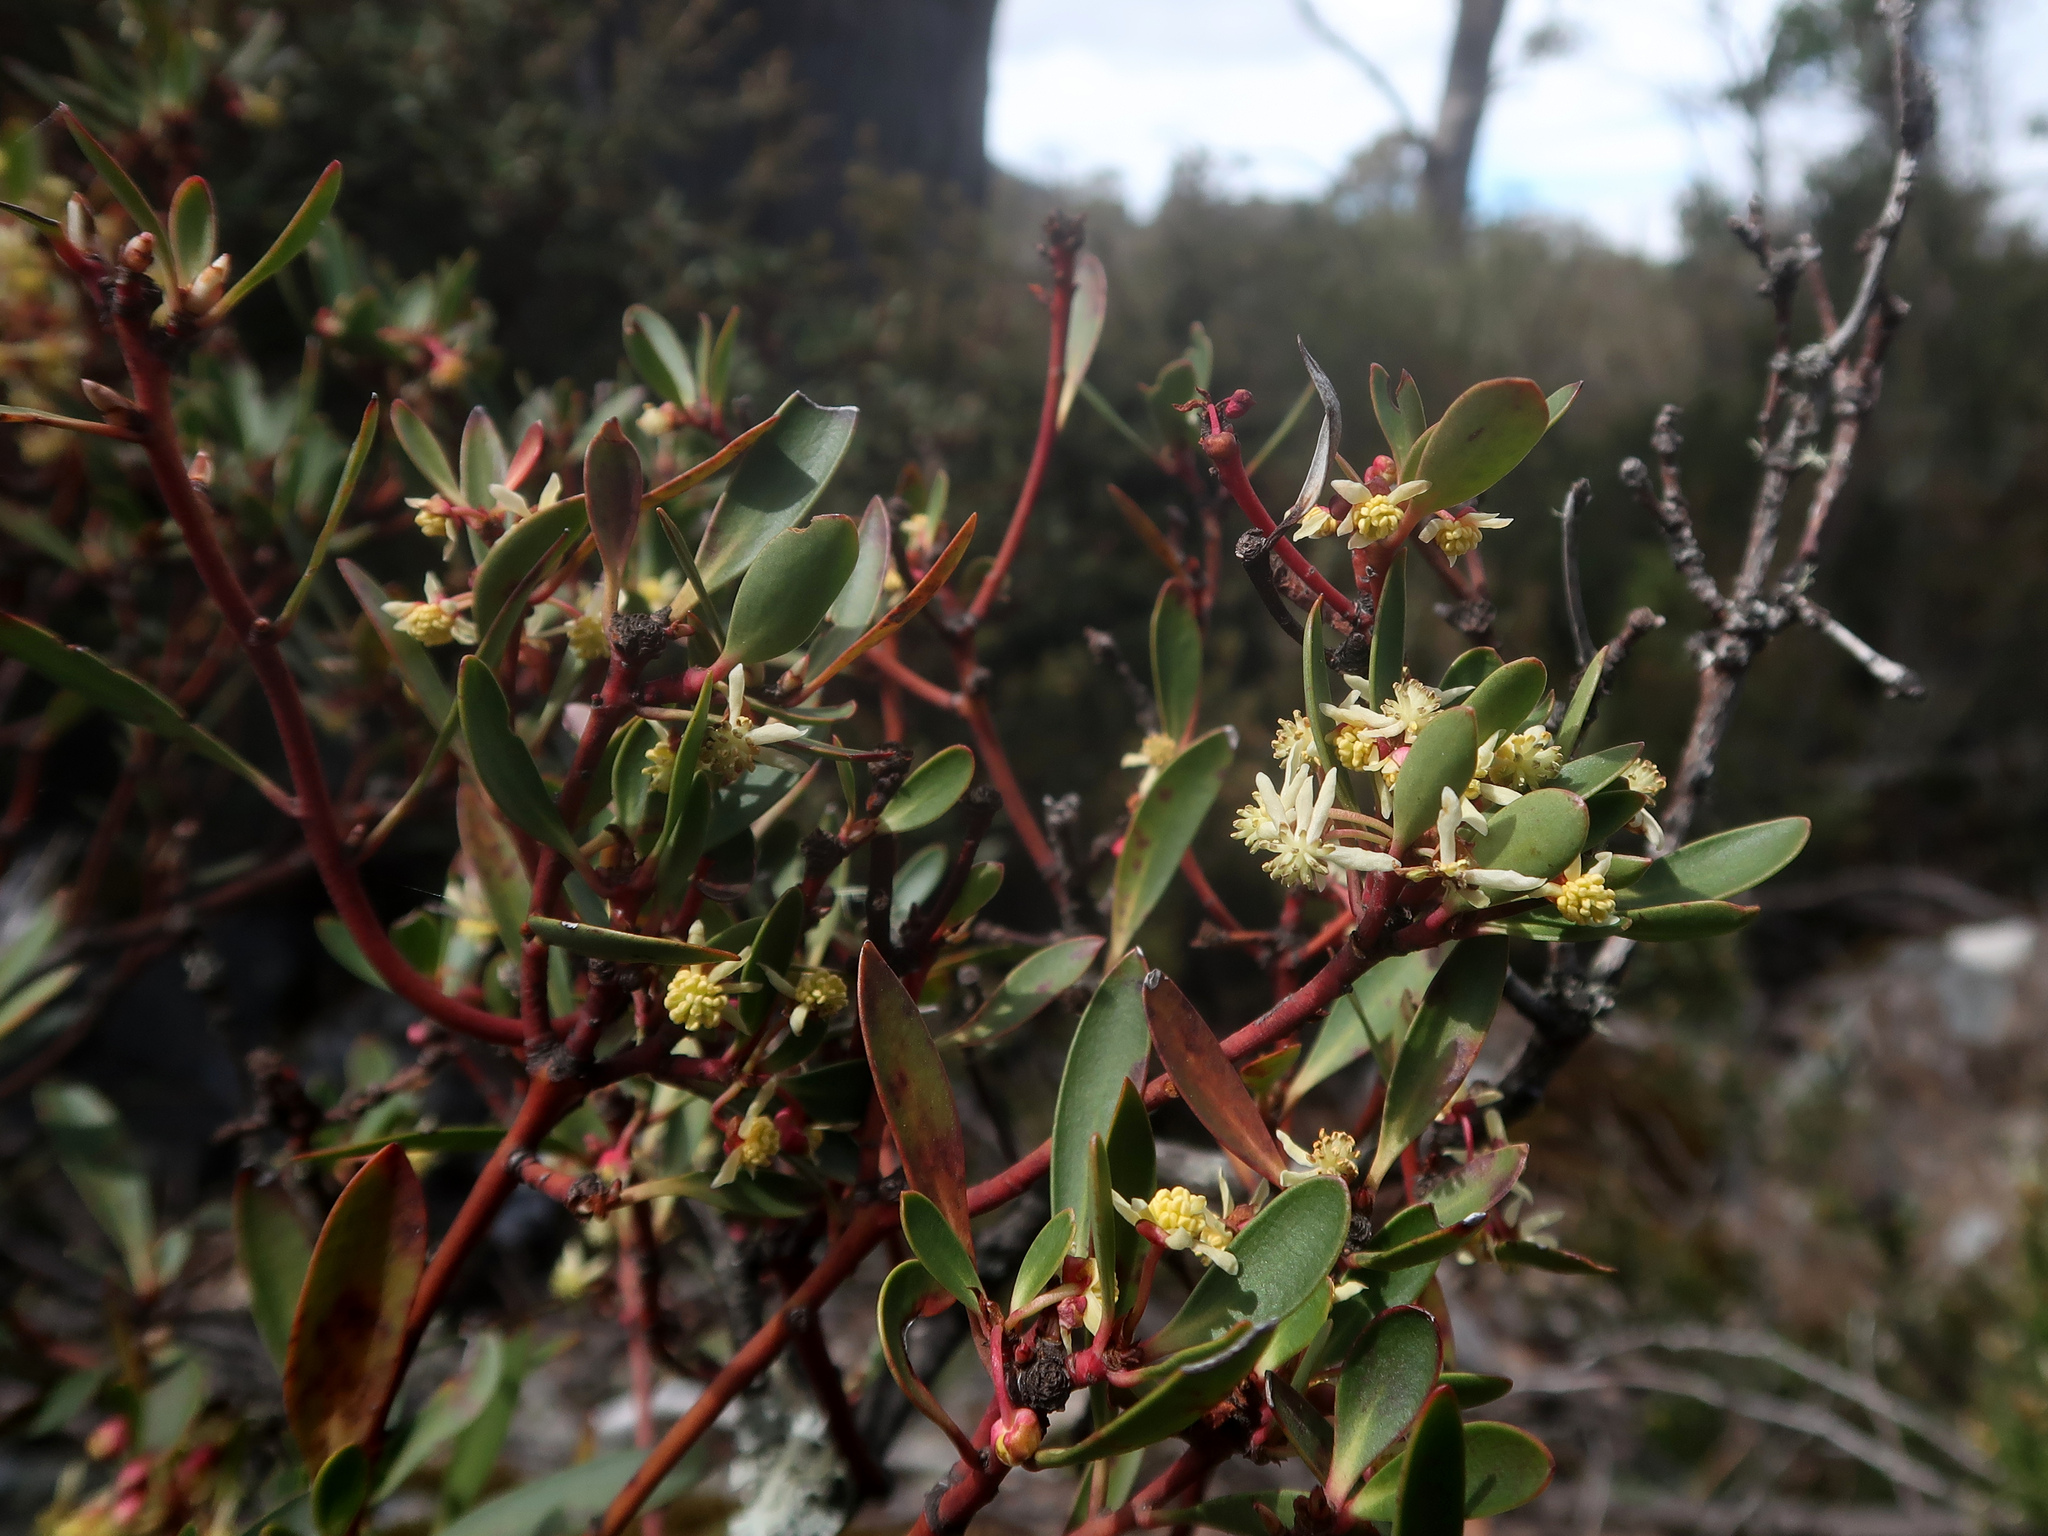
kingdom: Plantae
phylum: Tracheophyta
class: Magnoliopsida
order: Canellales
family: Winteraceae
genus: Drimys
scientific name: Drimys aromatica
